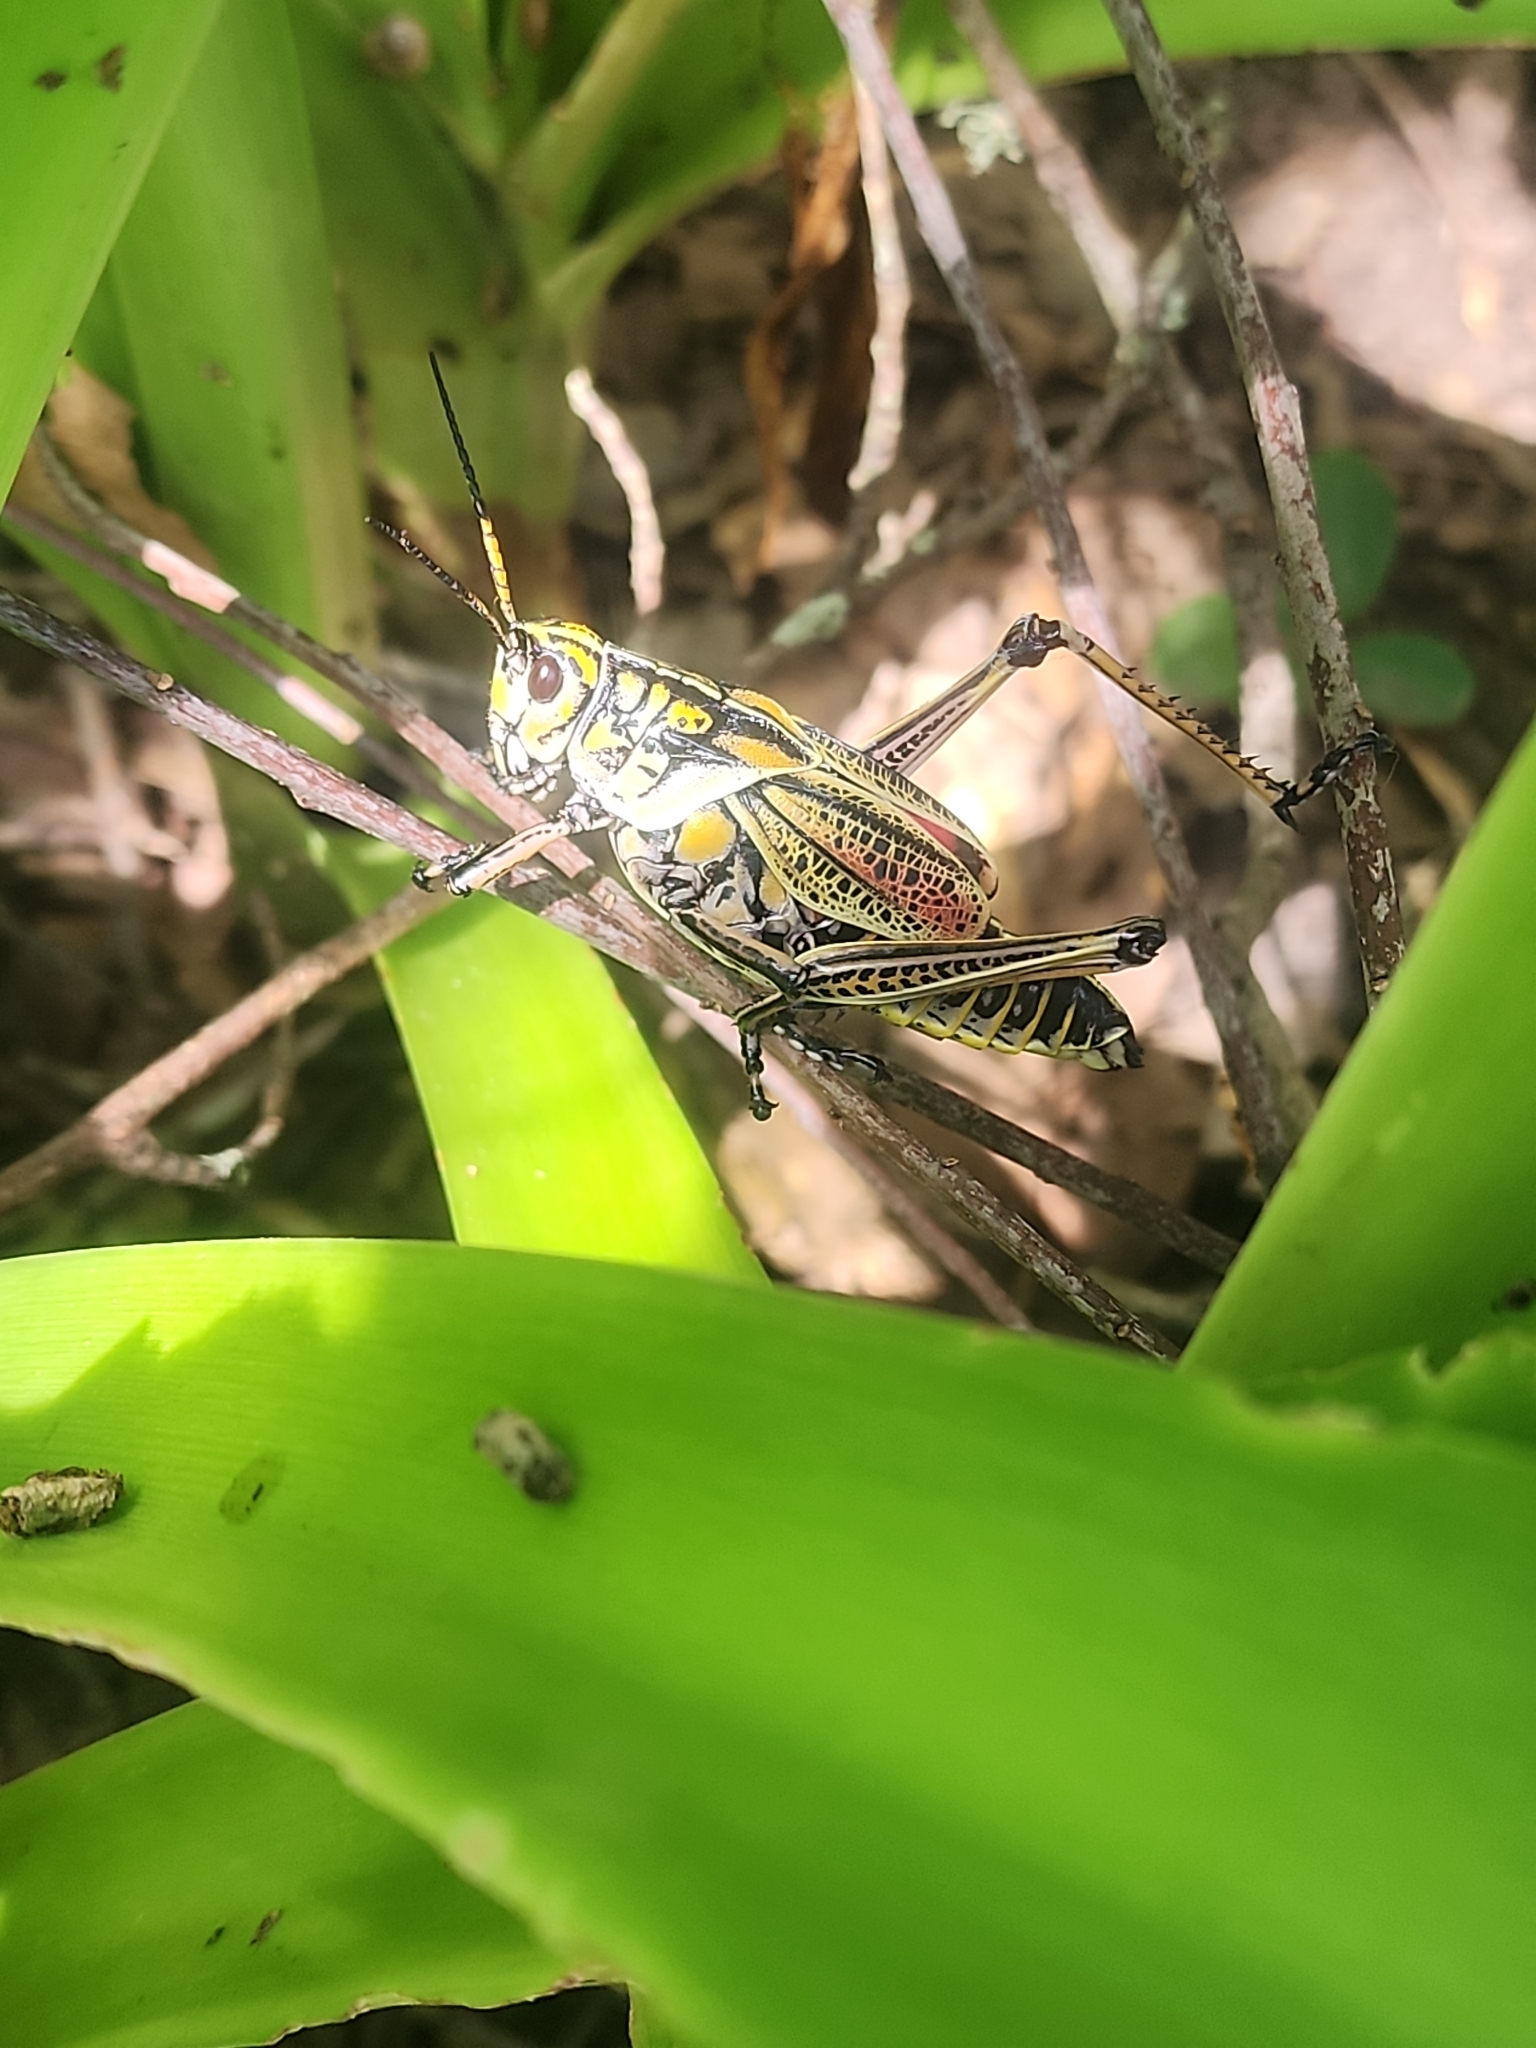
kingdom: Animalia
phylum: Arthropoda
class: Insecta
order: Orthoptera
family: Romaleidae
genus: Romalea
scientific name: Romalea microptera
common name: Eastern lubber grasshopper
